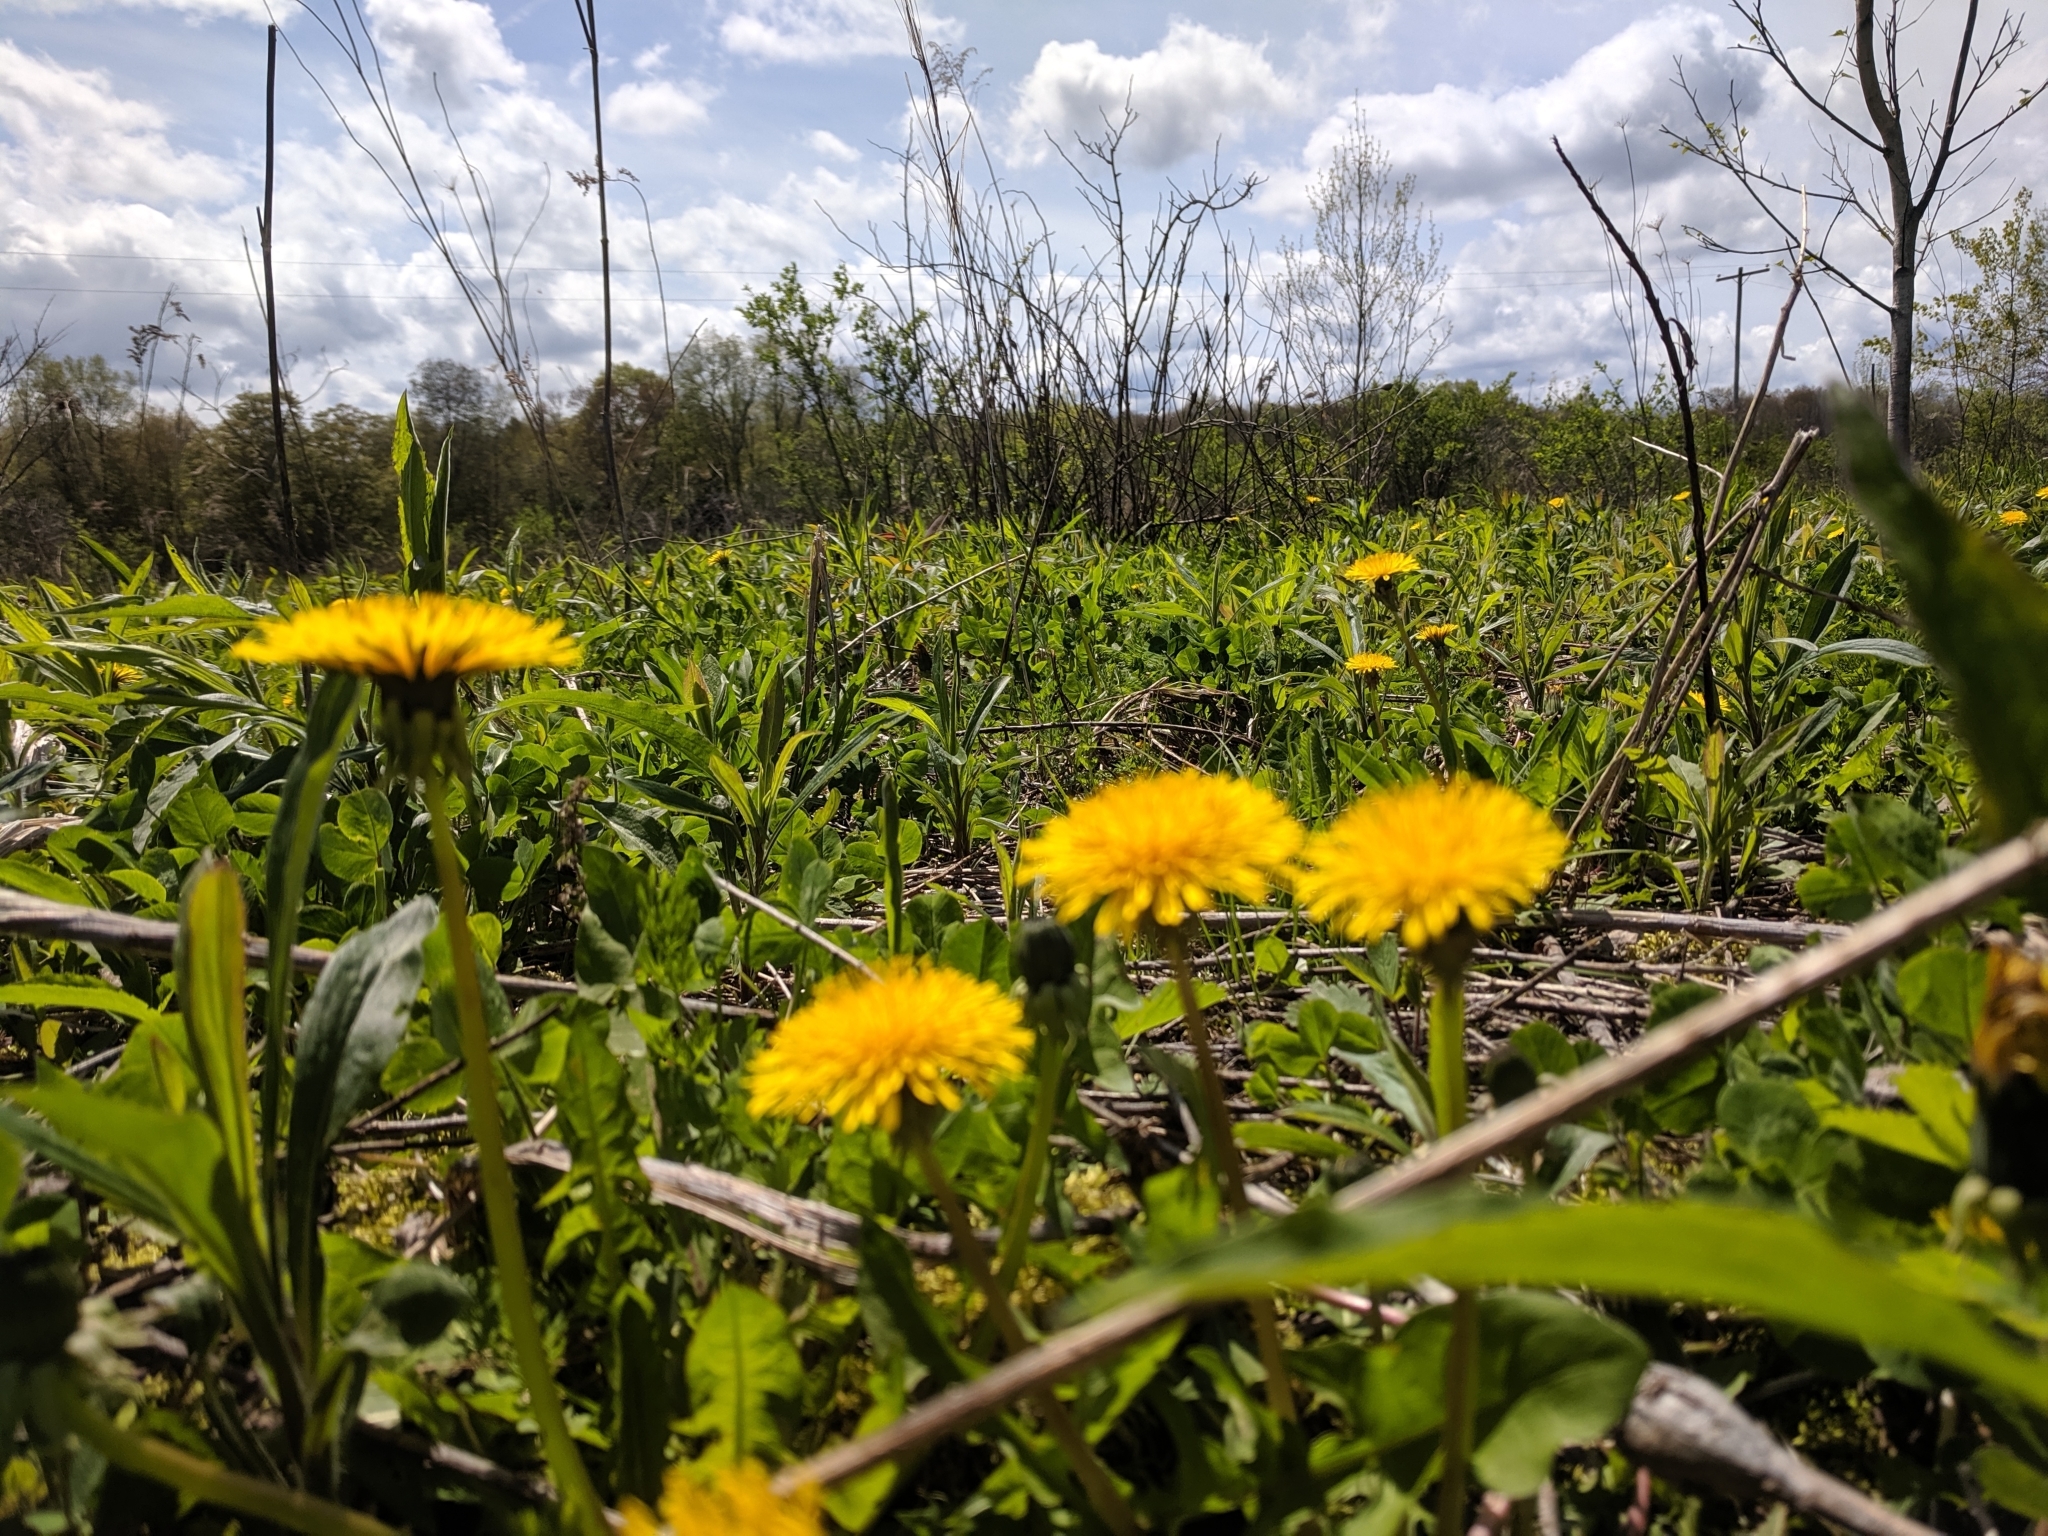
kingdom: Plantae
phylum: Tracheophyta
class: Magnoliopsida
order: Asterales
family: Asteraceae
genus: Taraxacum
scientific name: Taraxacum officinale
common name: Common dandelion
